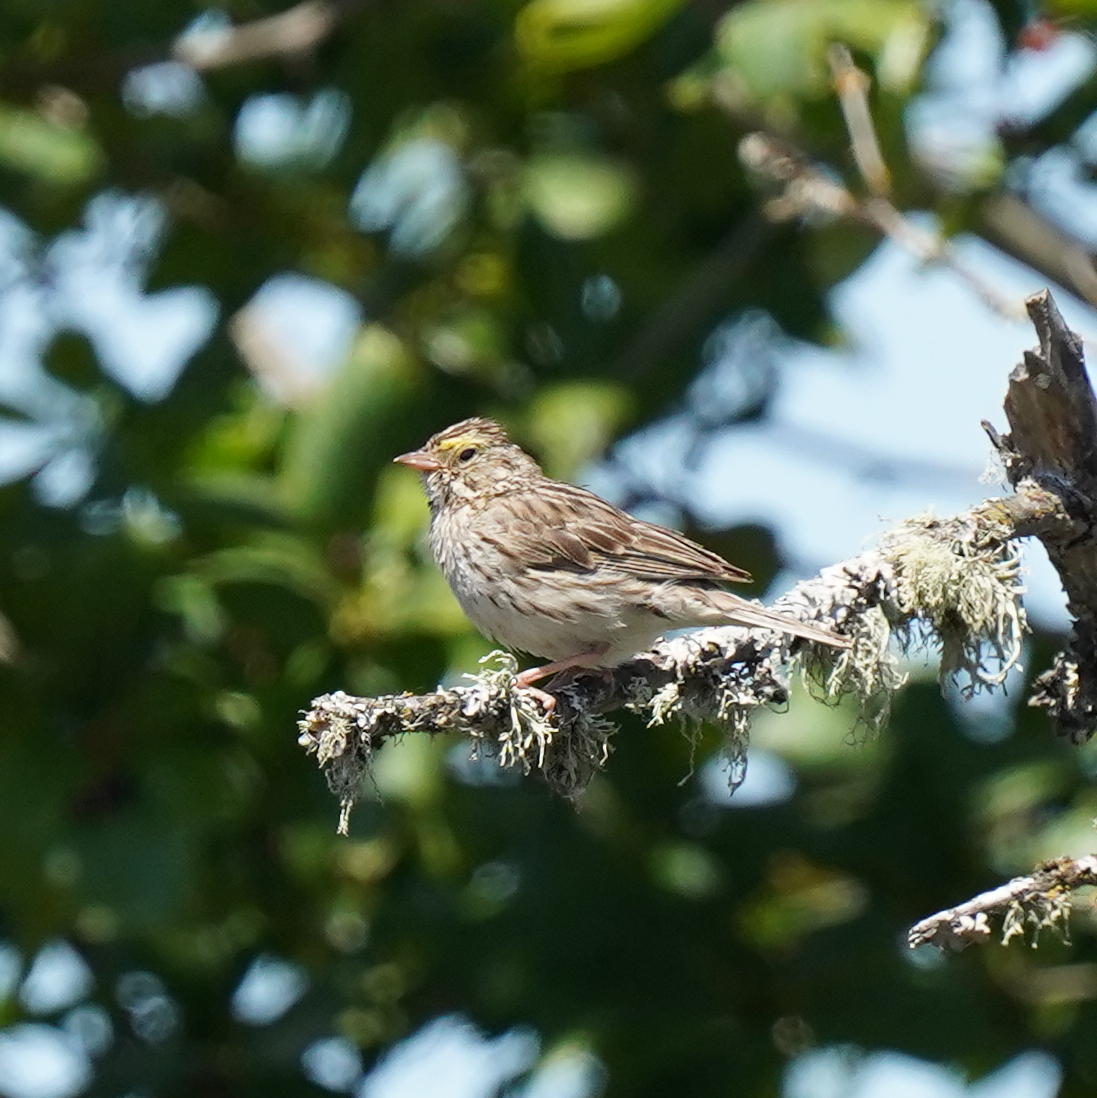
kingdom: Animalia
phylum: Chordata
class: Aves
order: Passeriformes
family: Passerellidae
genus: Passerculus
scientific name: Passerculus sandwichensis
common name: Savannah sparrow
